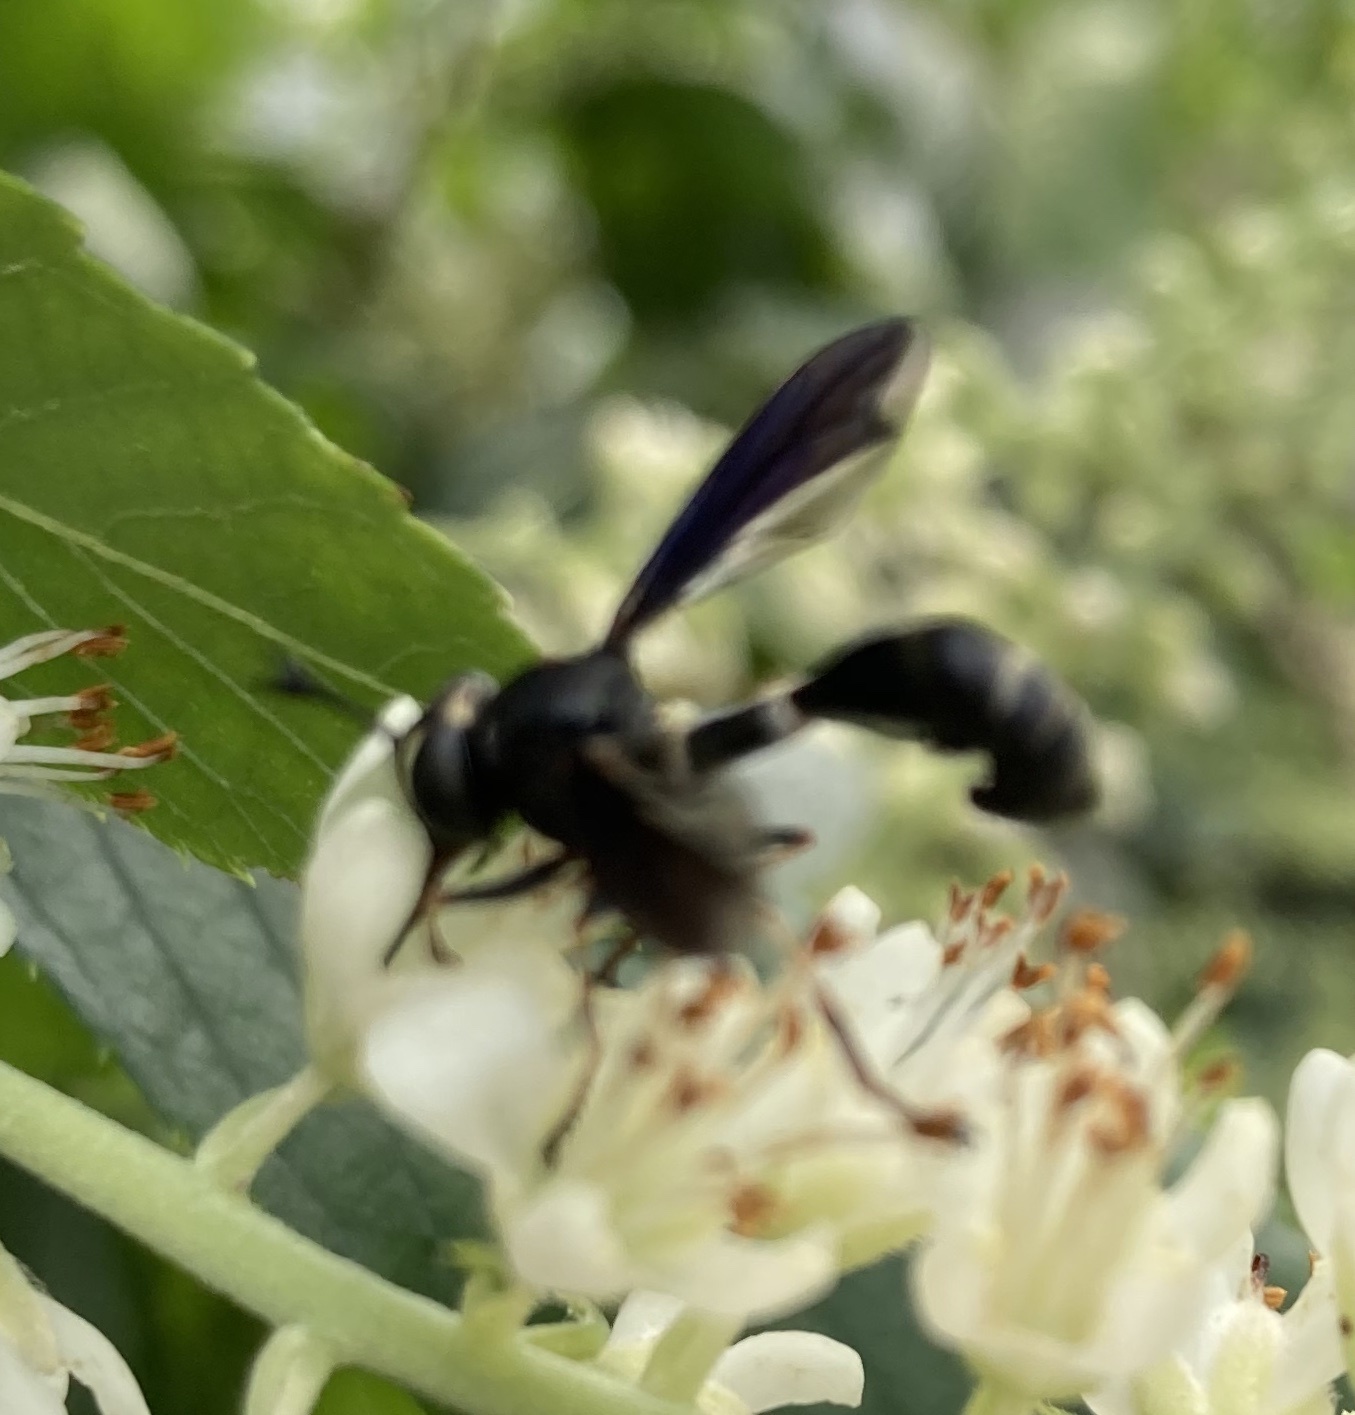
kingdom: Animalia
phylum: Arthropoda
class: Insecta
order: Diptera
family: Conopidae
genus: Physocephala
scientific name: Physocephala tibialis
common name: Common eastern physocephala
